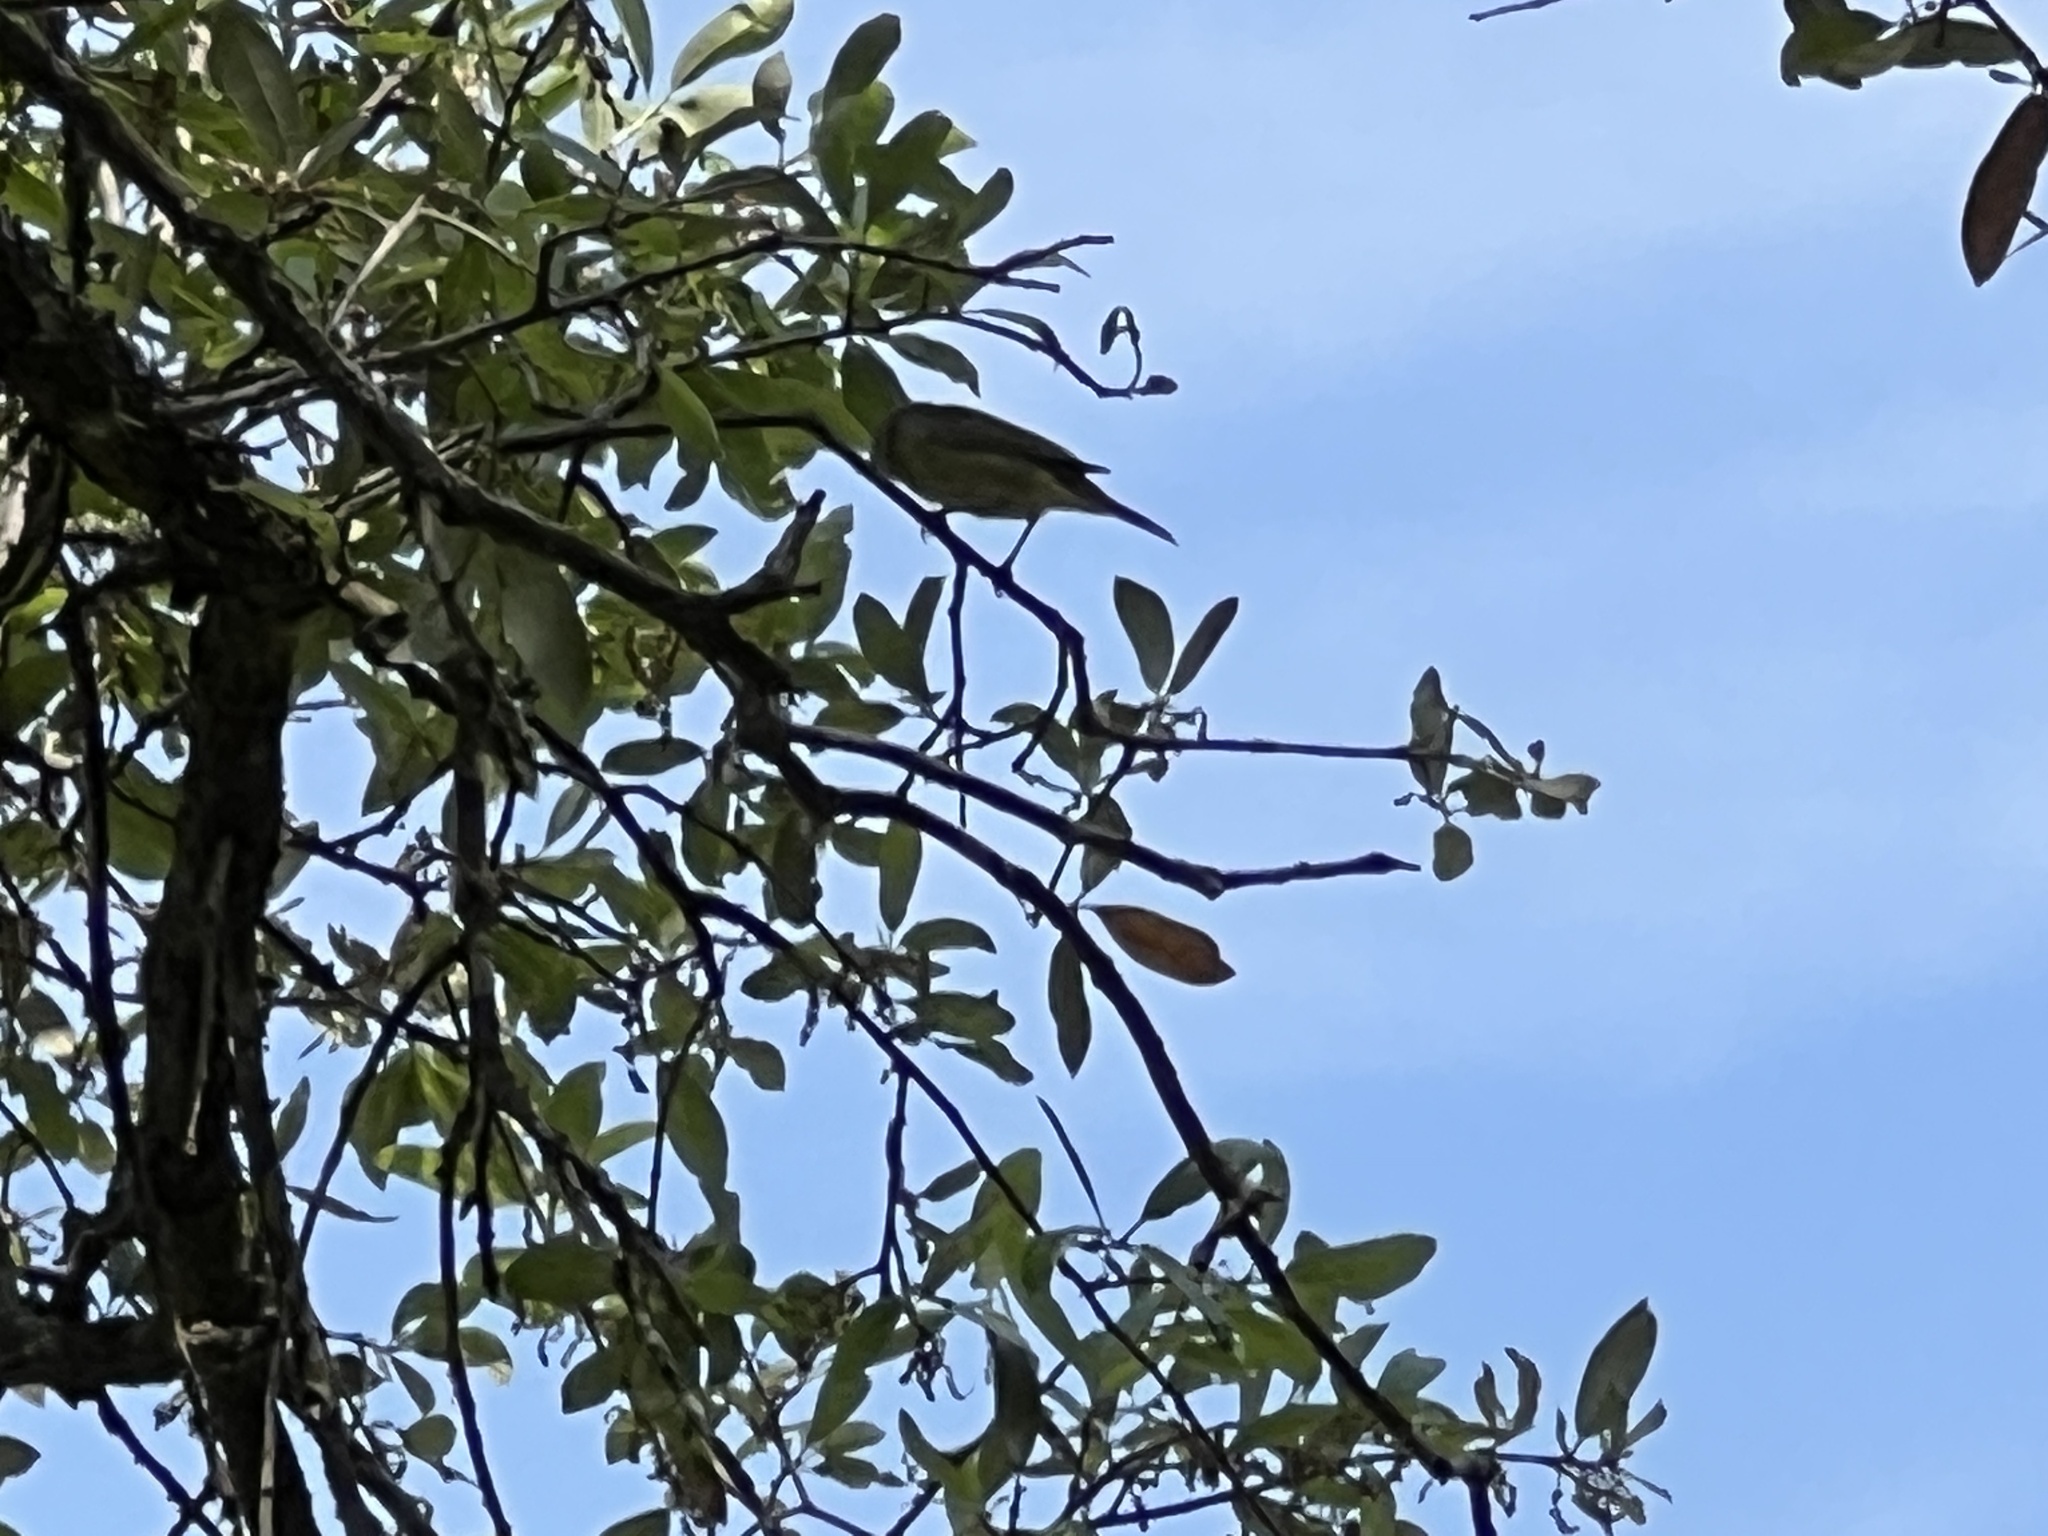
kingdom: Animalia
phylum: Chordata
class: Aves
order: Passeriformes
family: Parulidae
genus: Leiothlypis
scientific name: Leiothlypis celata
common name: Orange-crowned warbler
